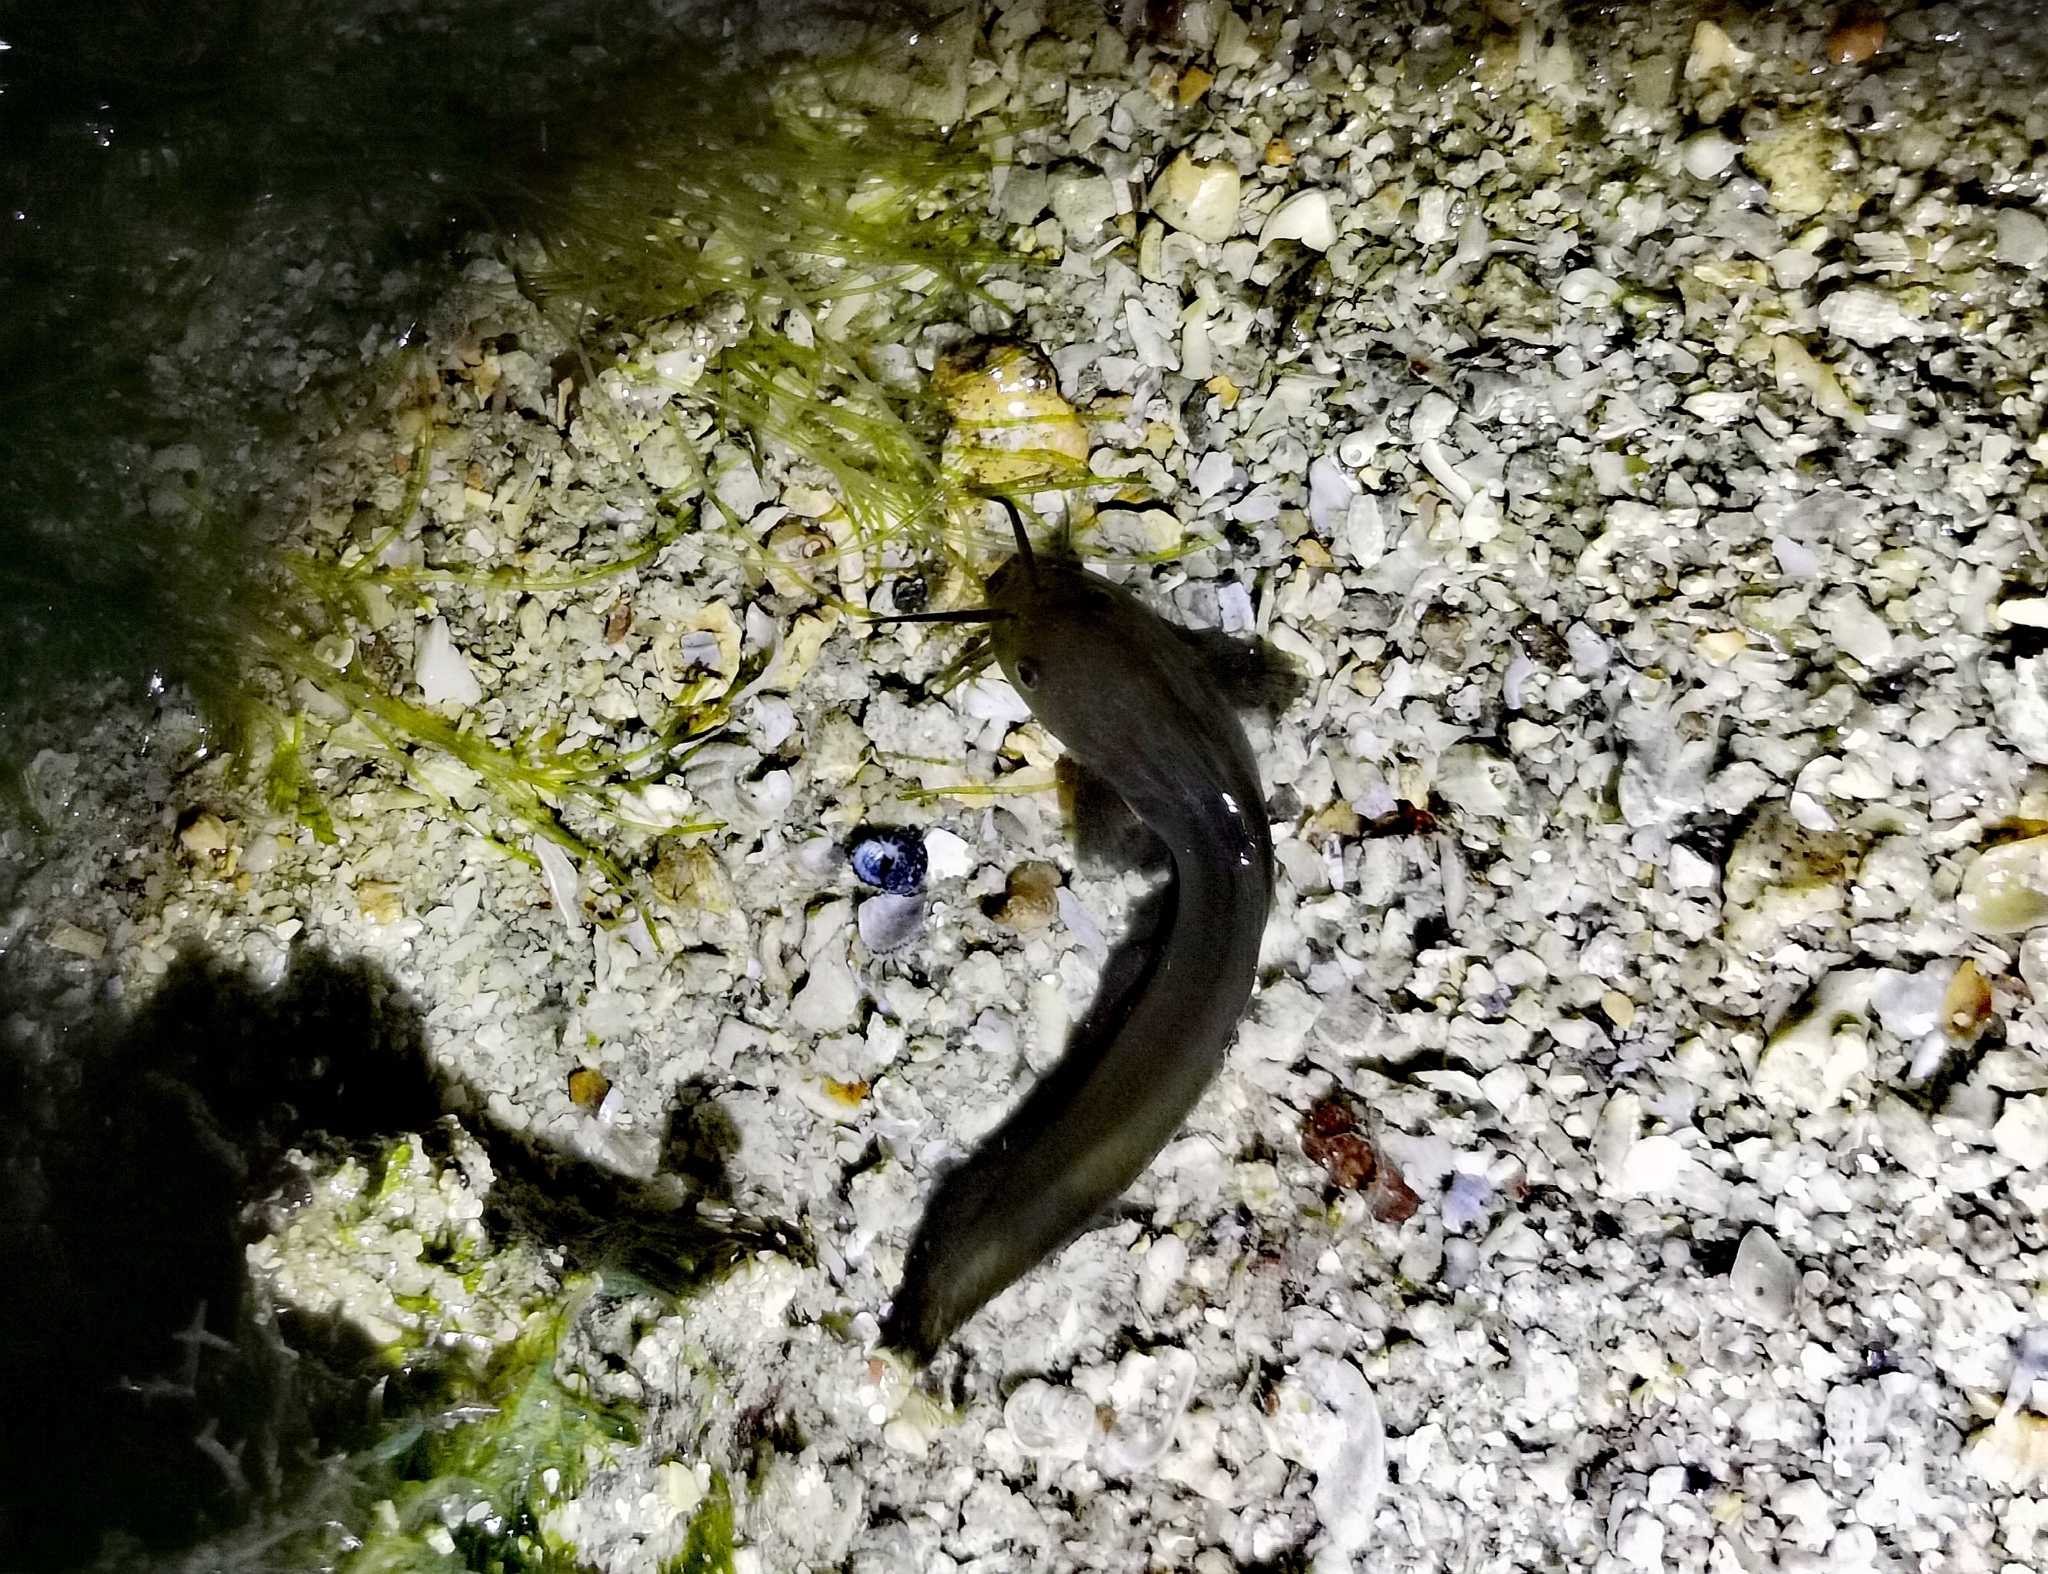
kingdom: Animalia
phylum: Chordata
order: Siluriformes
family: Plotosidae
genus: Paraplotosus
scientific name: Paraplotosus albilabris
